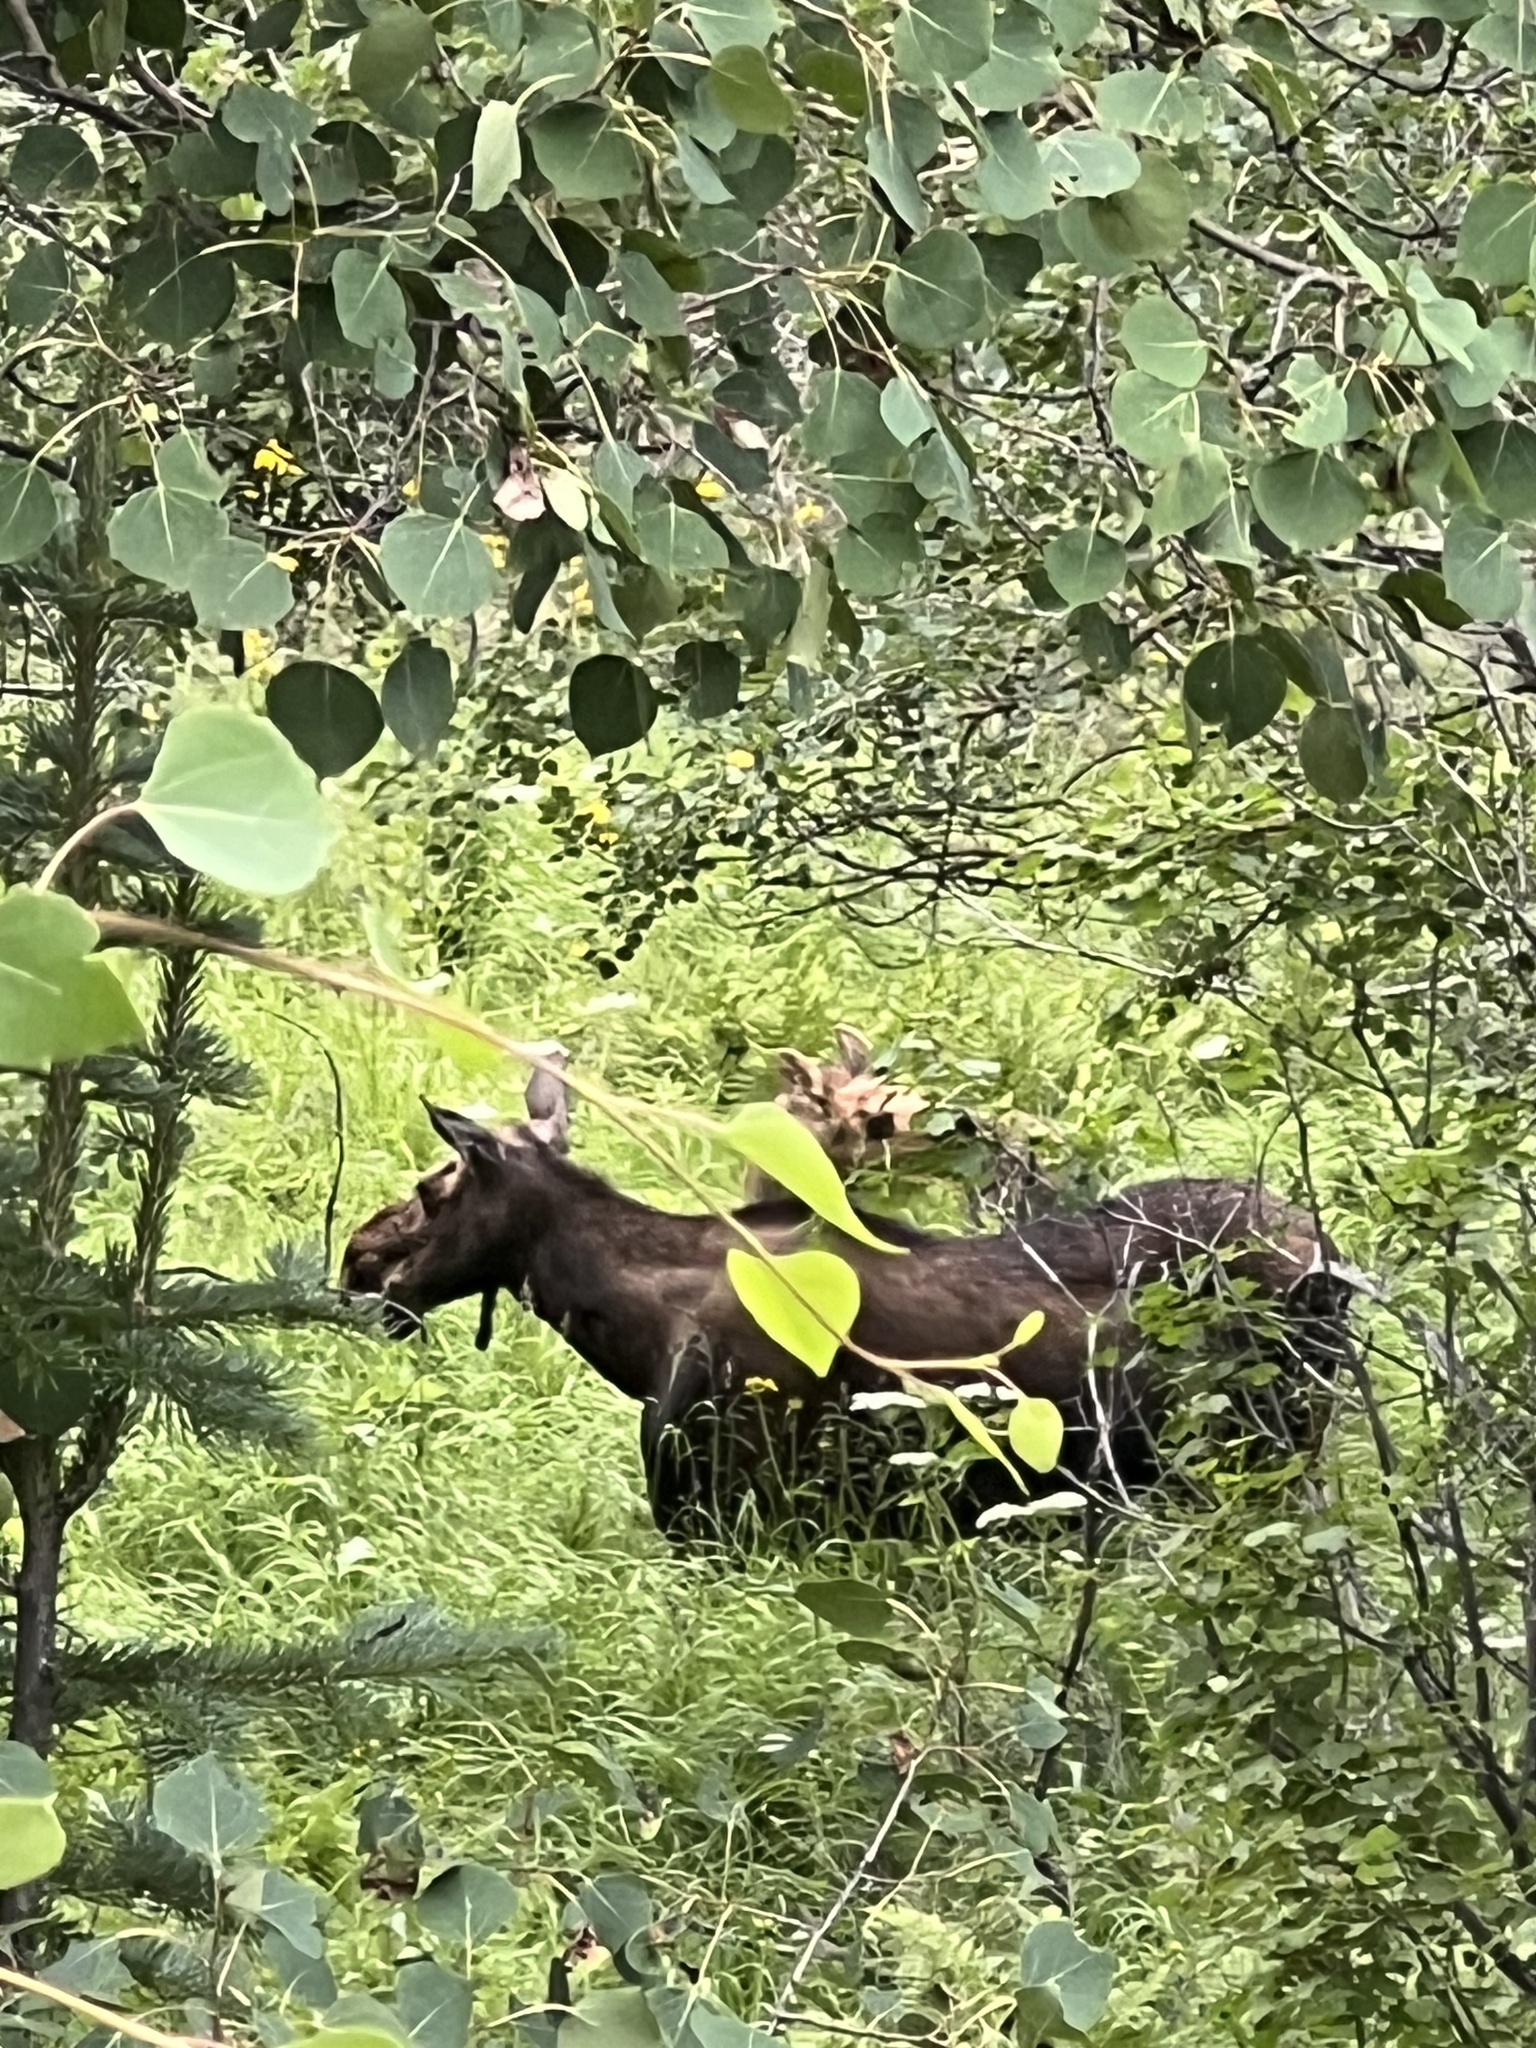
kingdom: Animalia
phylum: Chordata
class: Mammalia
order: Artiodactyla
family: Cervidae
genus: Alces
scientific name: Alces alces
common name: Moose
